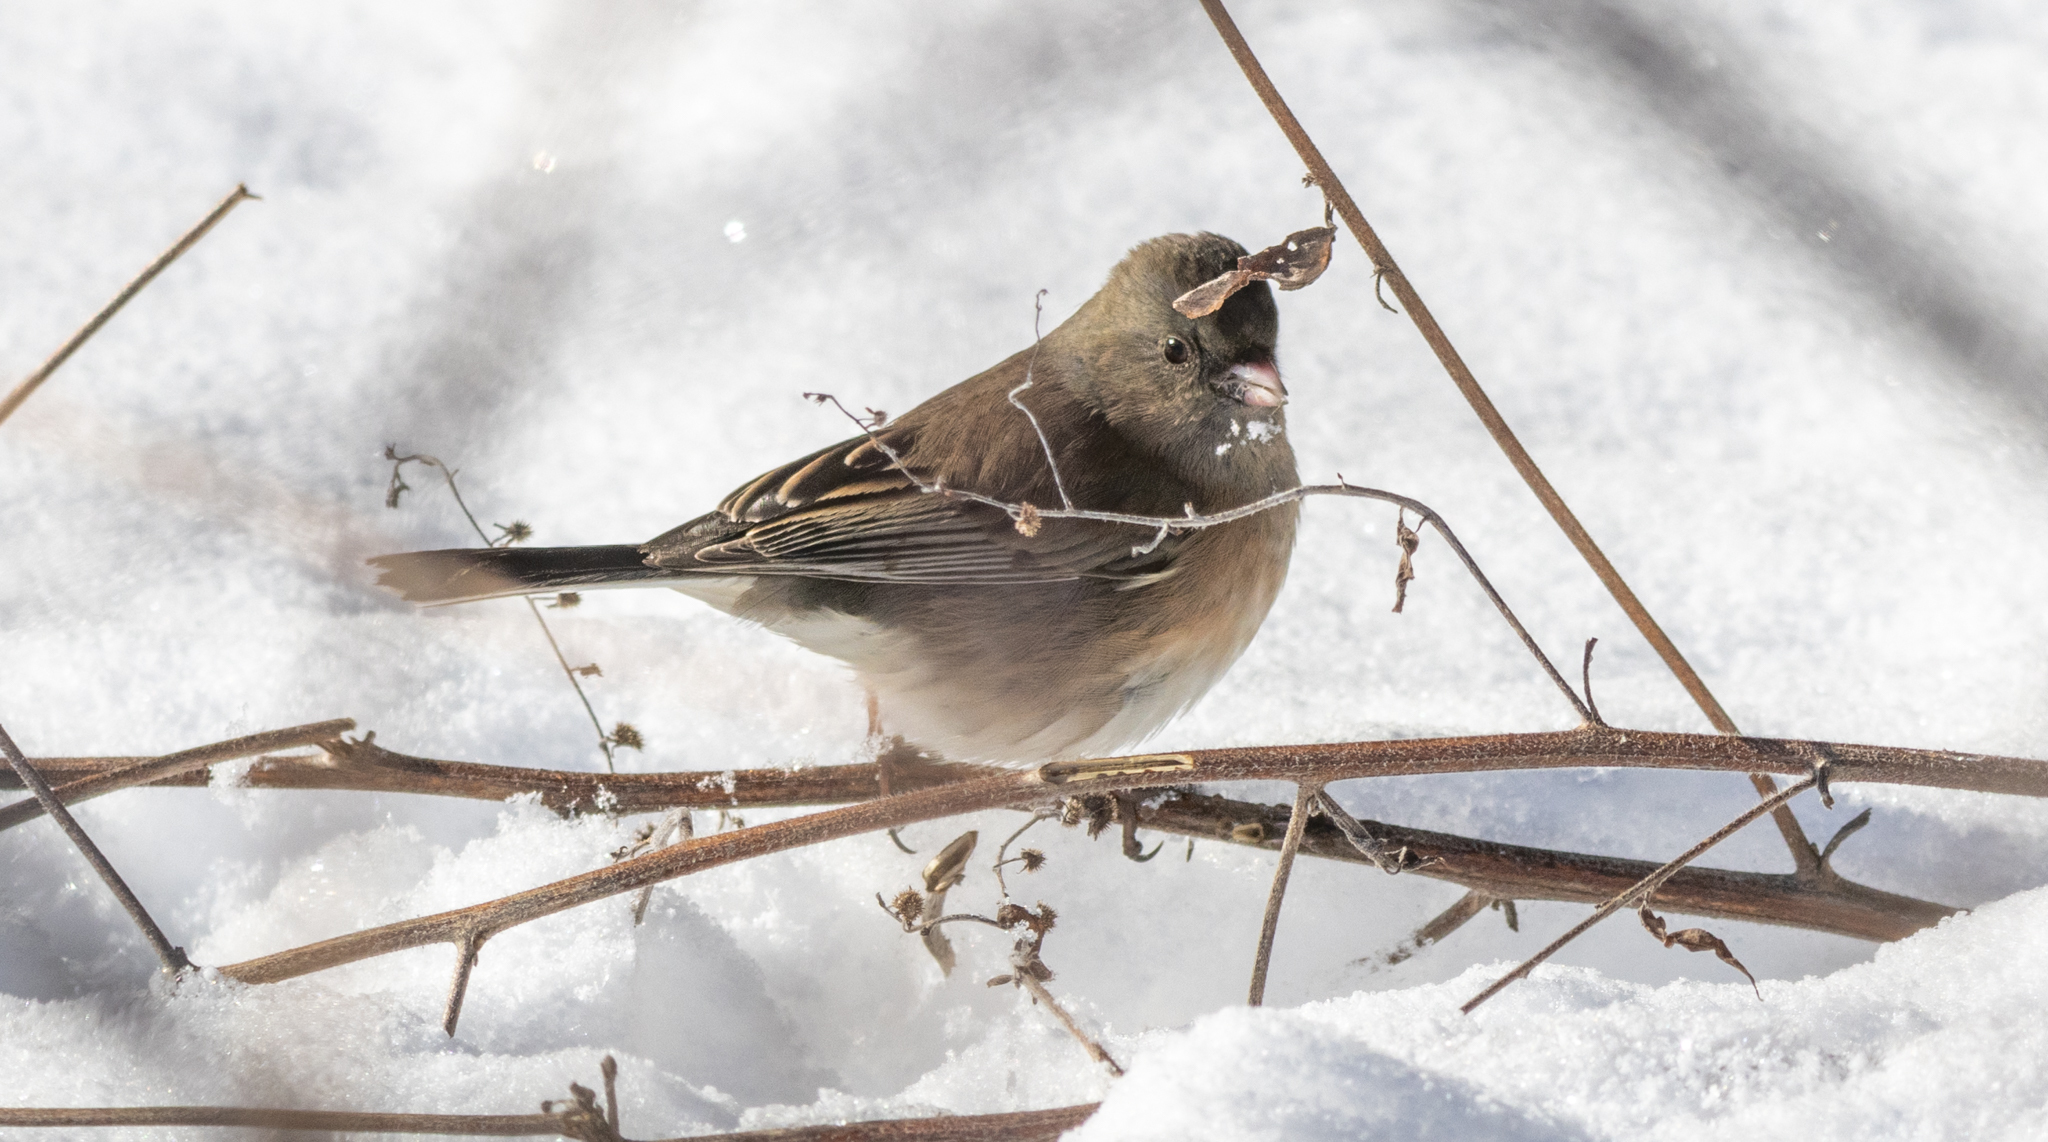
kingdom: Animalia
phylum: Chordata
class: Aves
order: Passeriformes
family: Passerellidae
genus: Junco
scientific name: Junco hyemalis
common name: Dark-eyed junco
